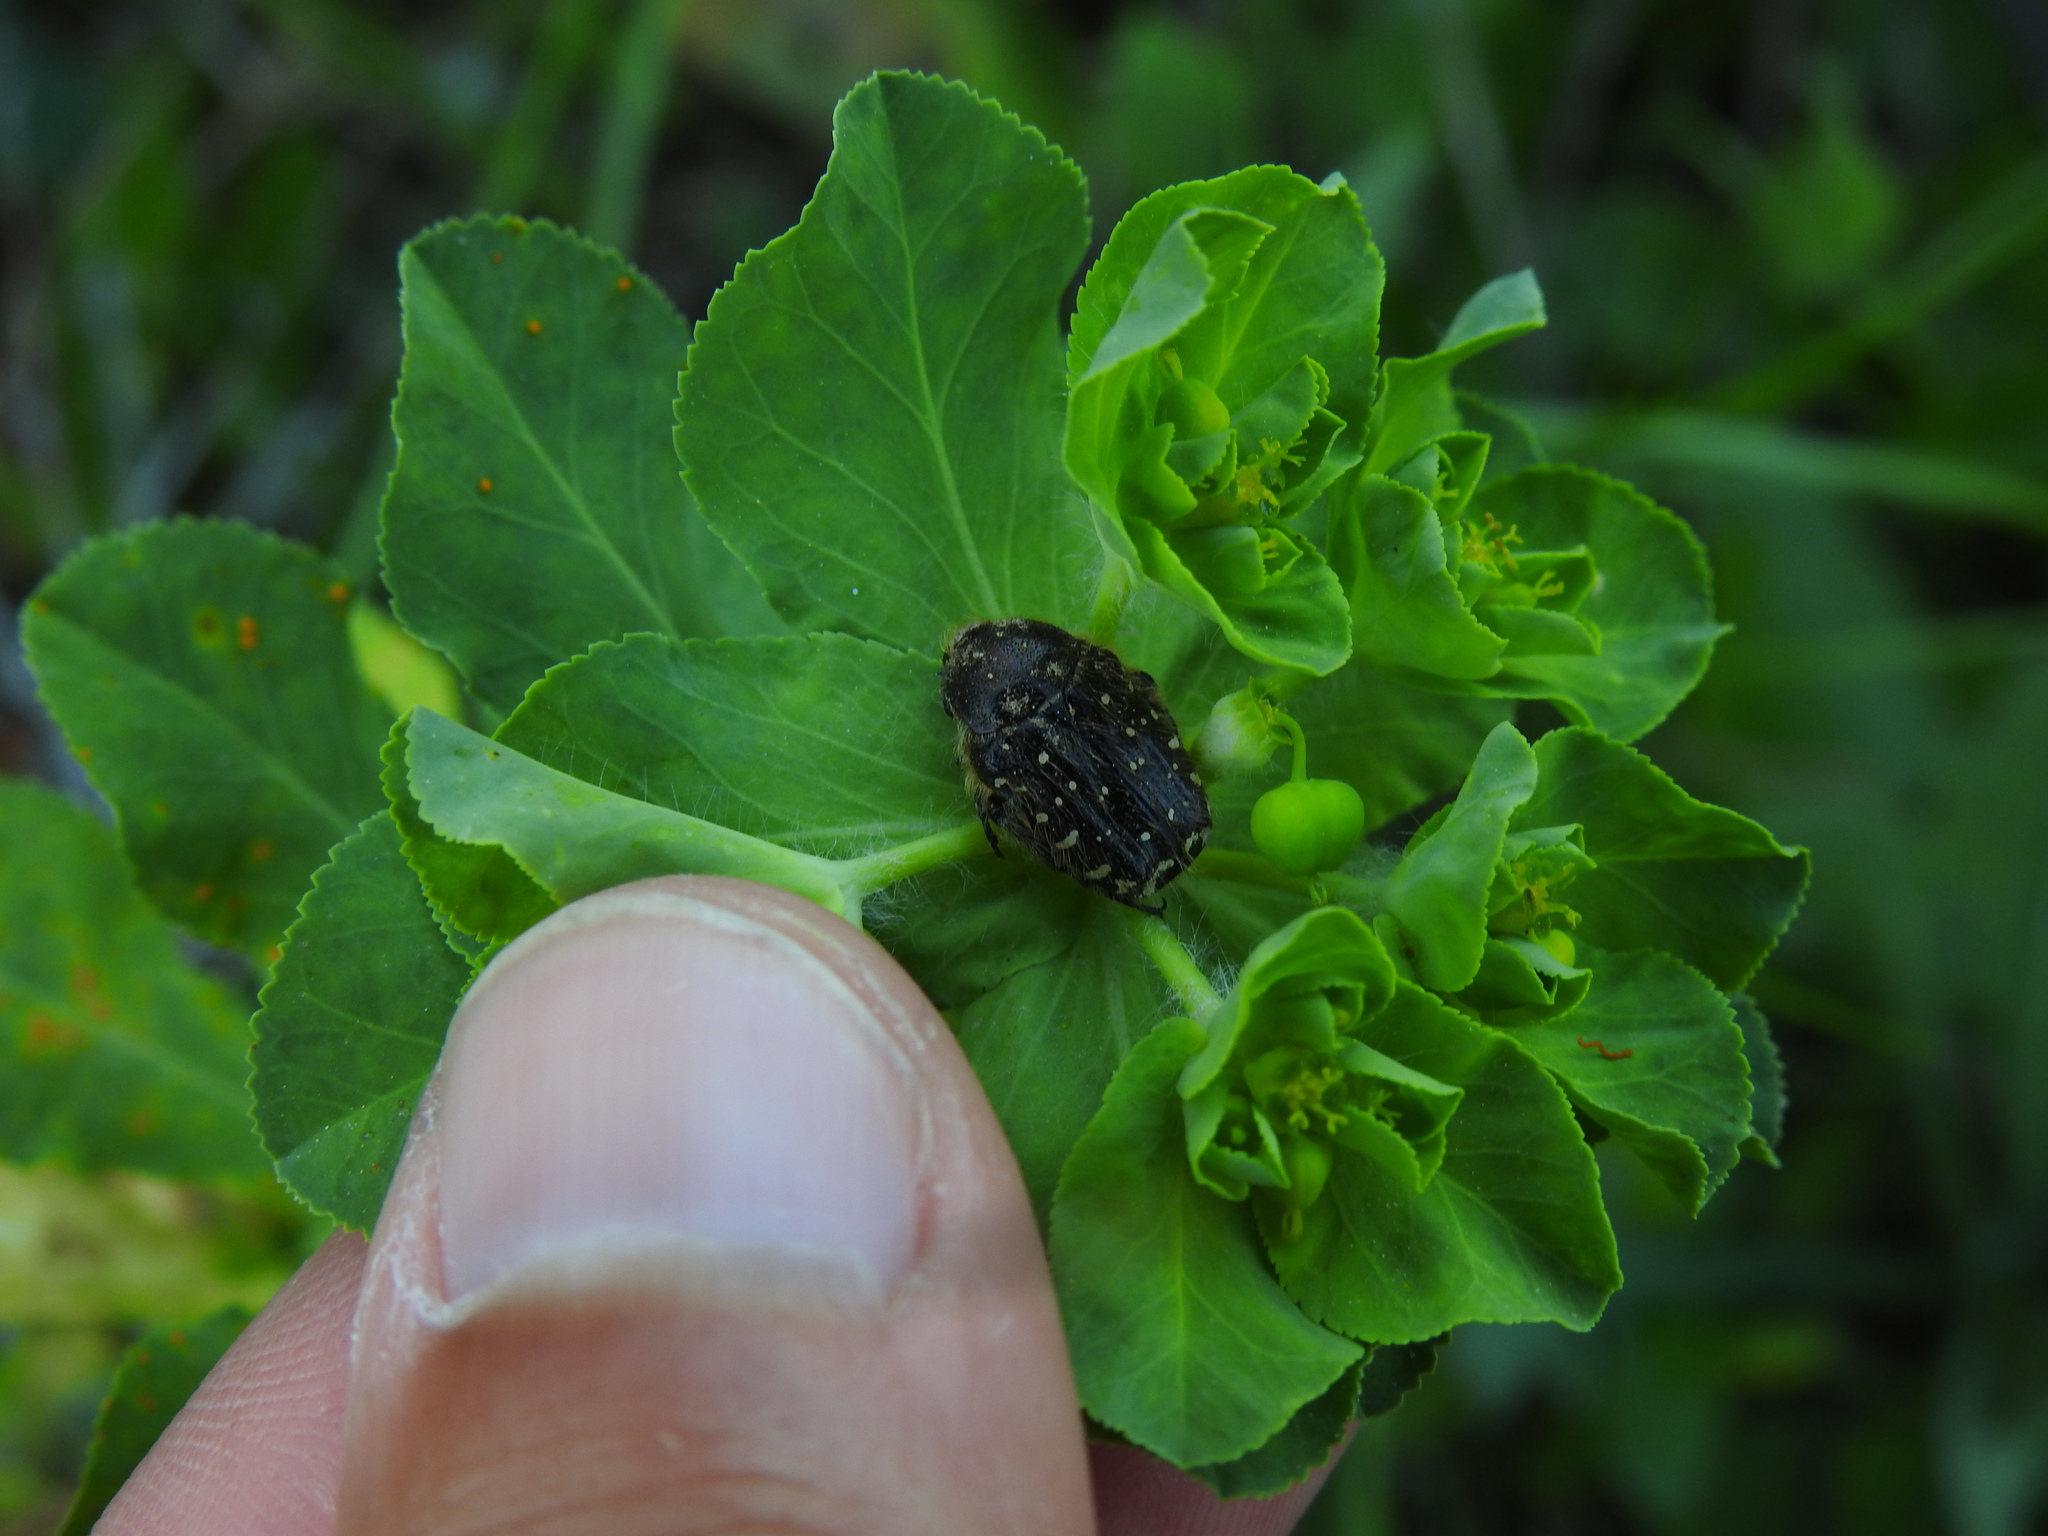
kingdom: Animalia
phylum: Arthropoda
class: Insecta
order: Coleoptera
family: Scarabaeidae
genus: Oxythyrea
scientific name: Oxythyrea funesta
